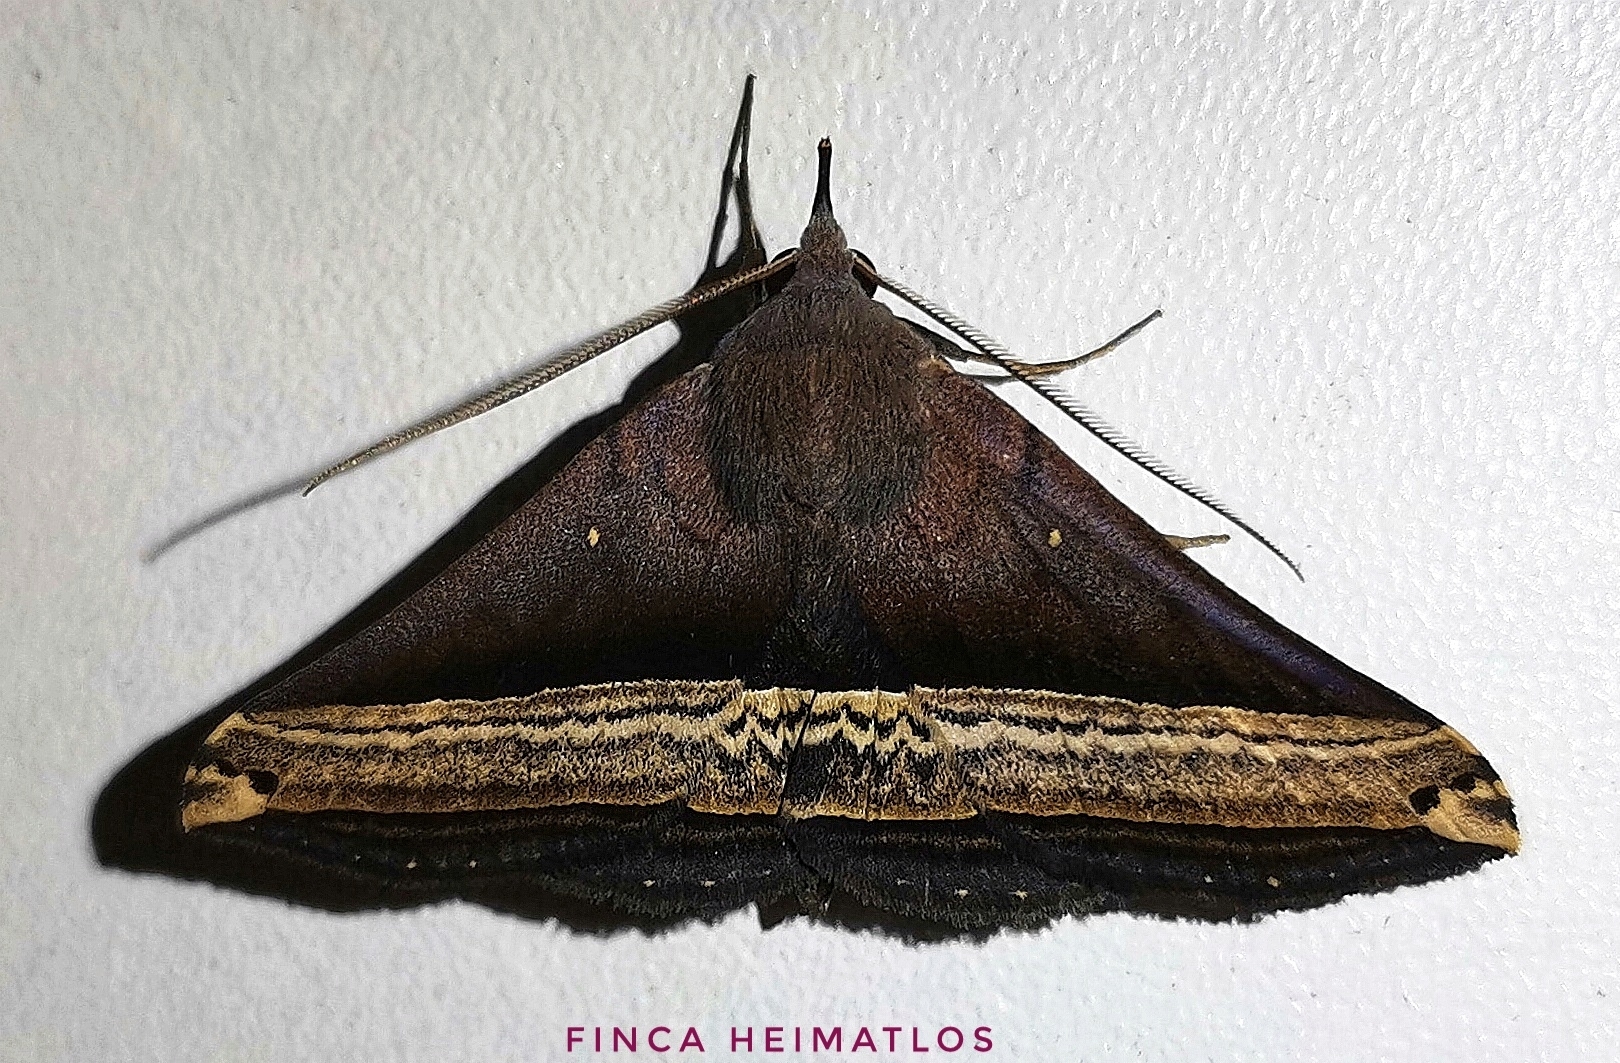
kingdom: Animalia
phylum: Arthropoda
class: Insecta
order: Lepidoptera
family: Erebidae
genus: Pterhemia
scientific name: Pterhemia
